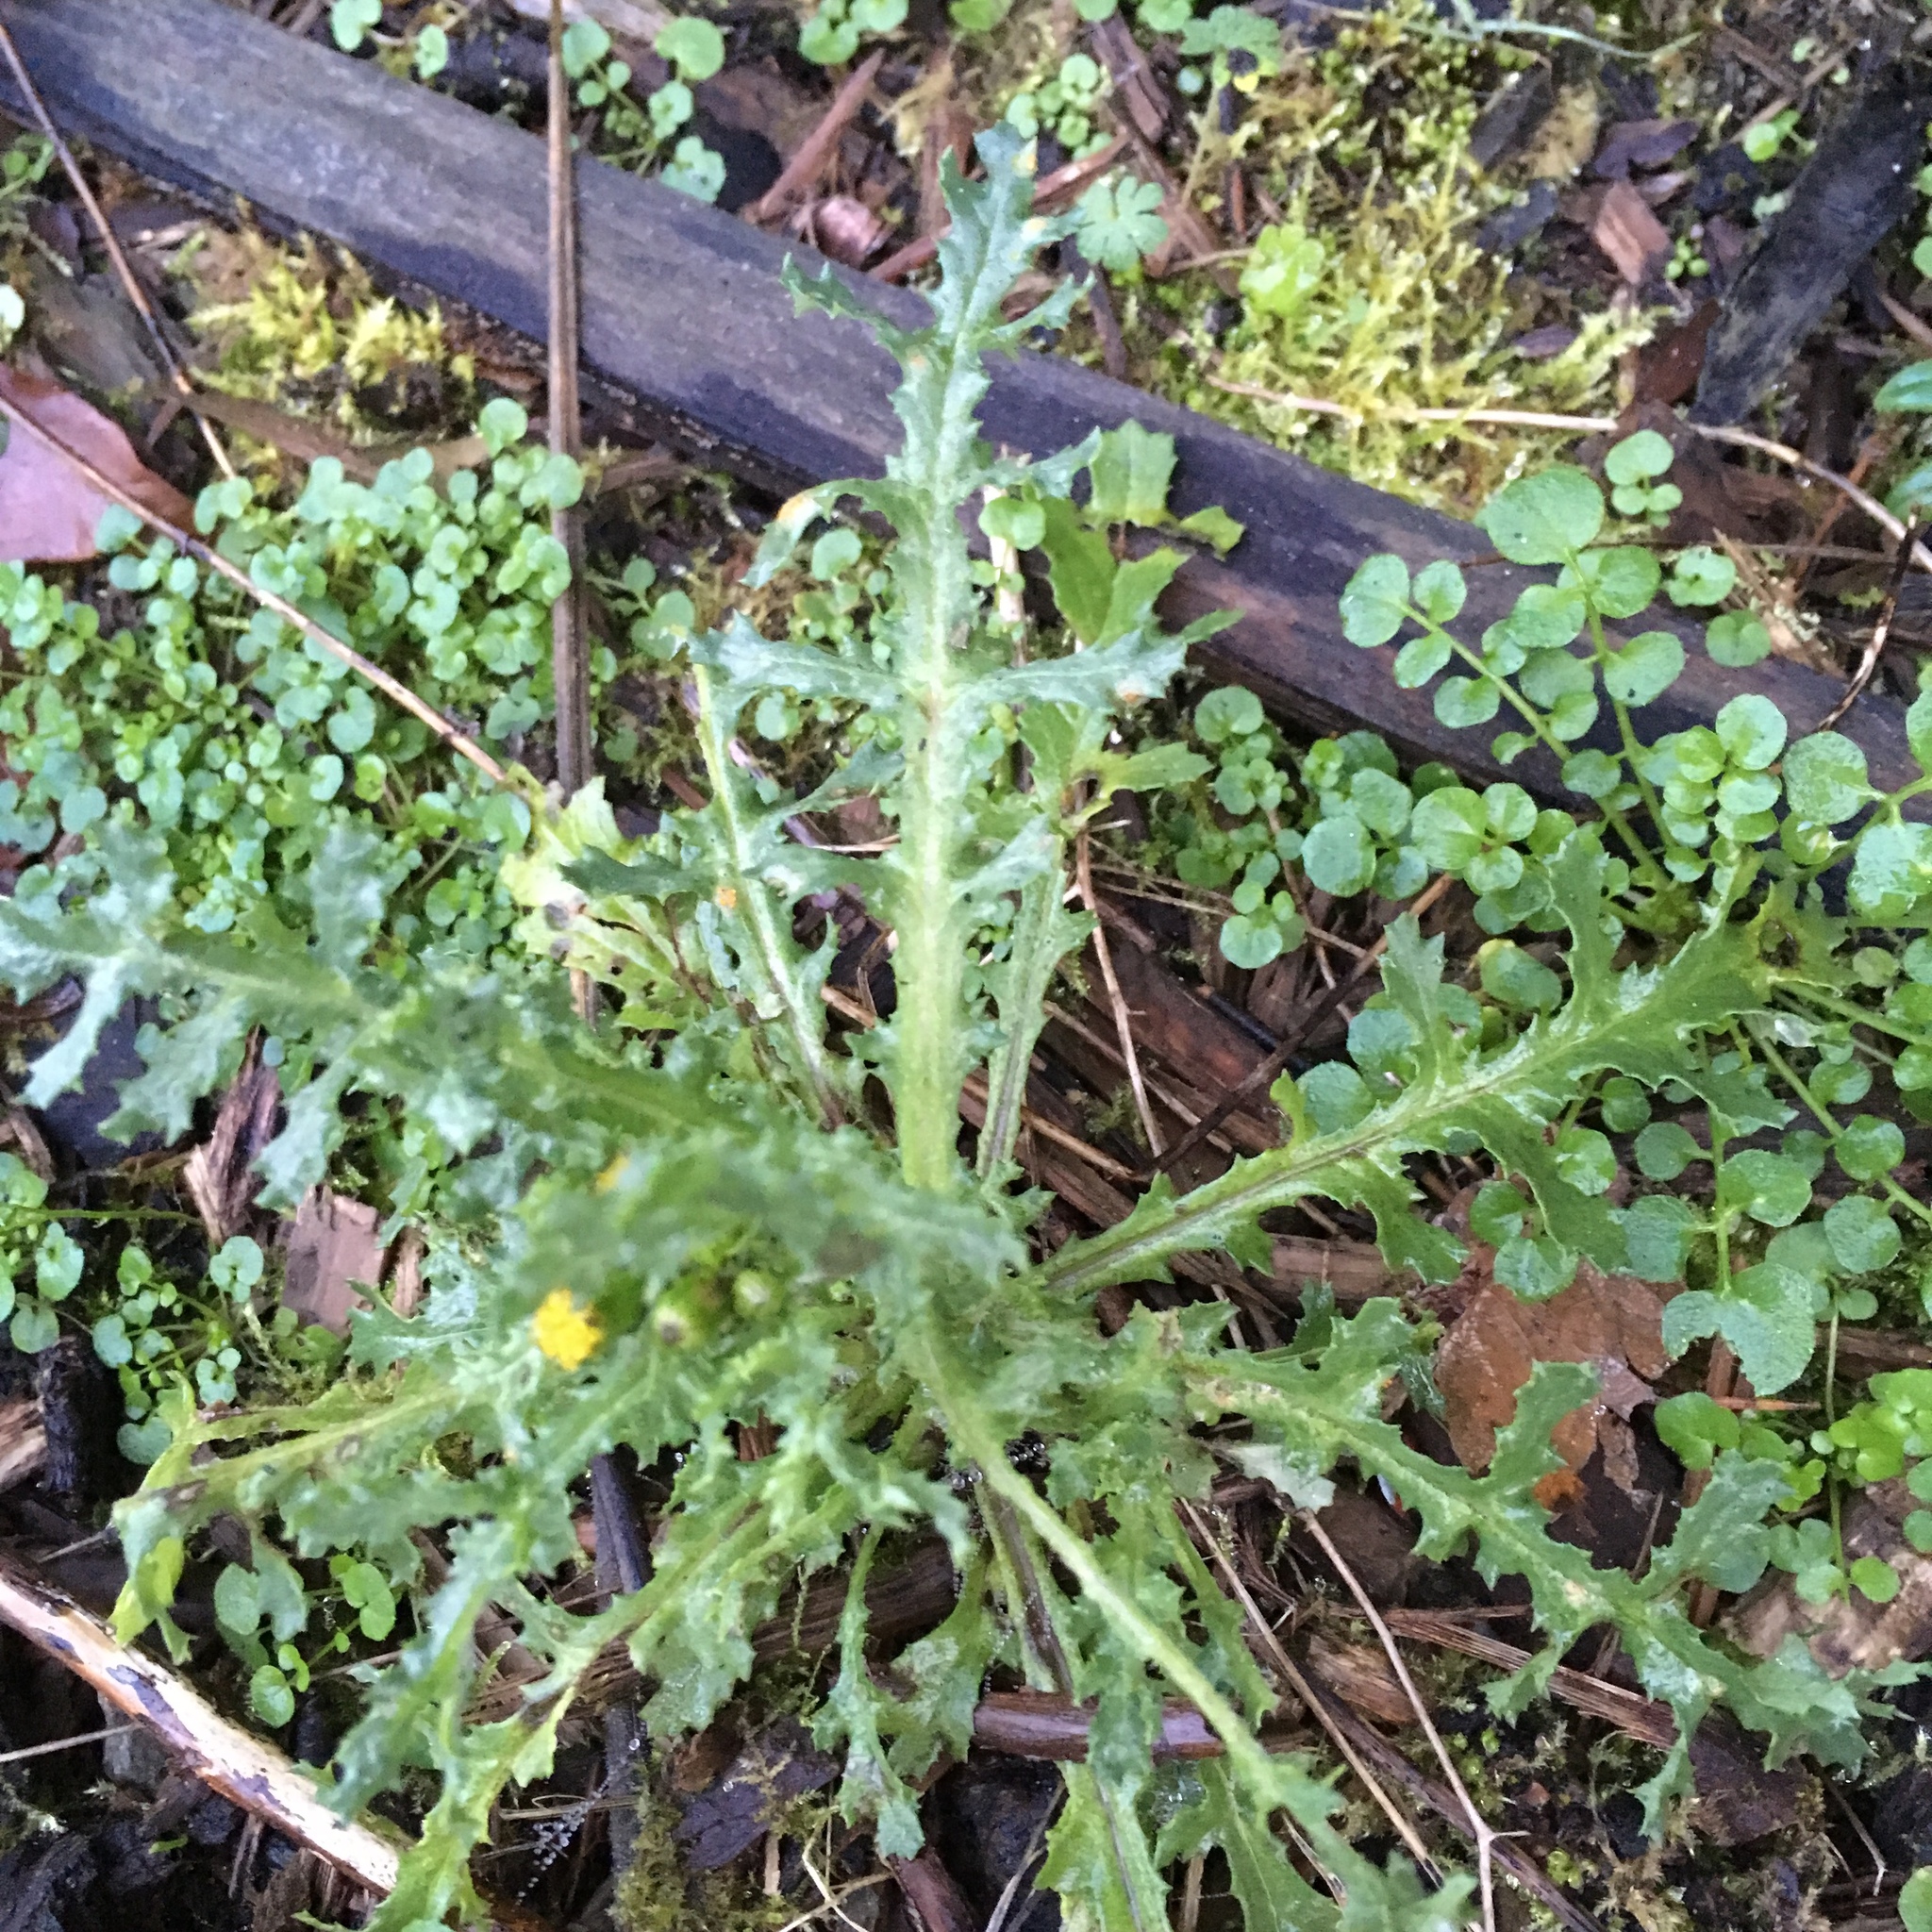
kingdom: Plantae
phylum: Tracheophyta
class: Magnoliopsida
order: Asterales
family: Asteraceae
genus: Senecio
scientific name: Senecio vulgaris
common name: Old-man-in-the-spring
